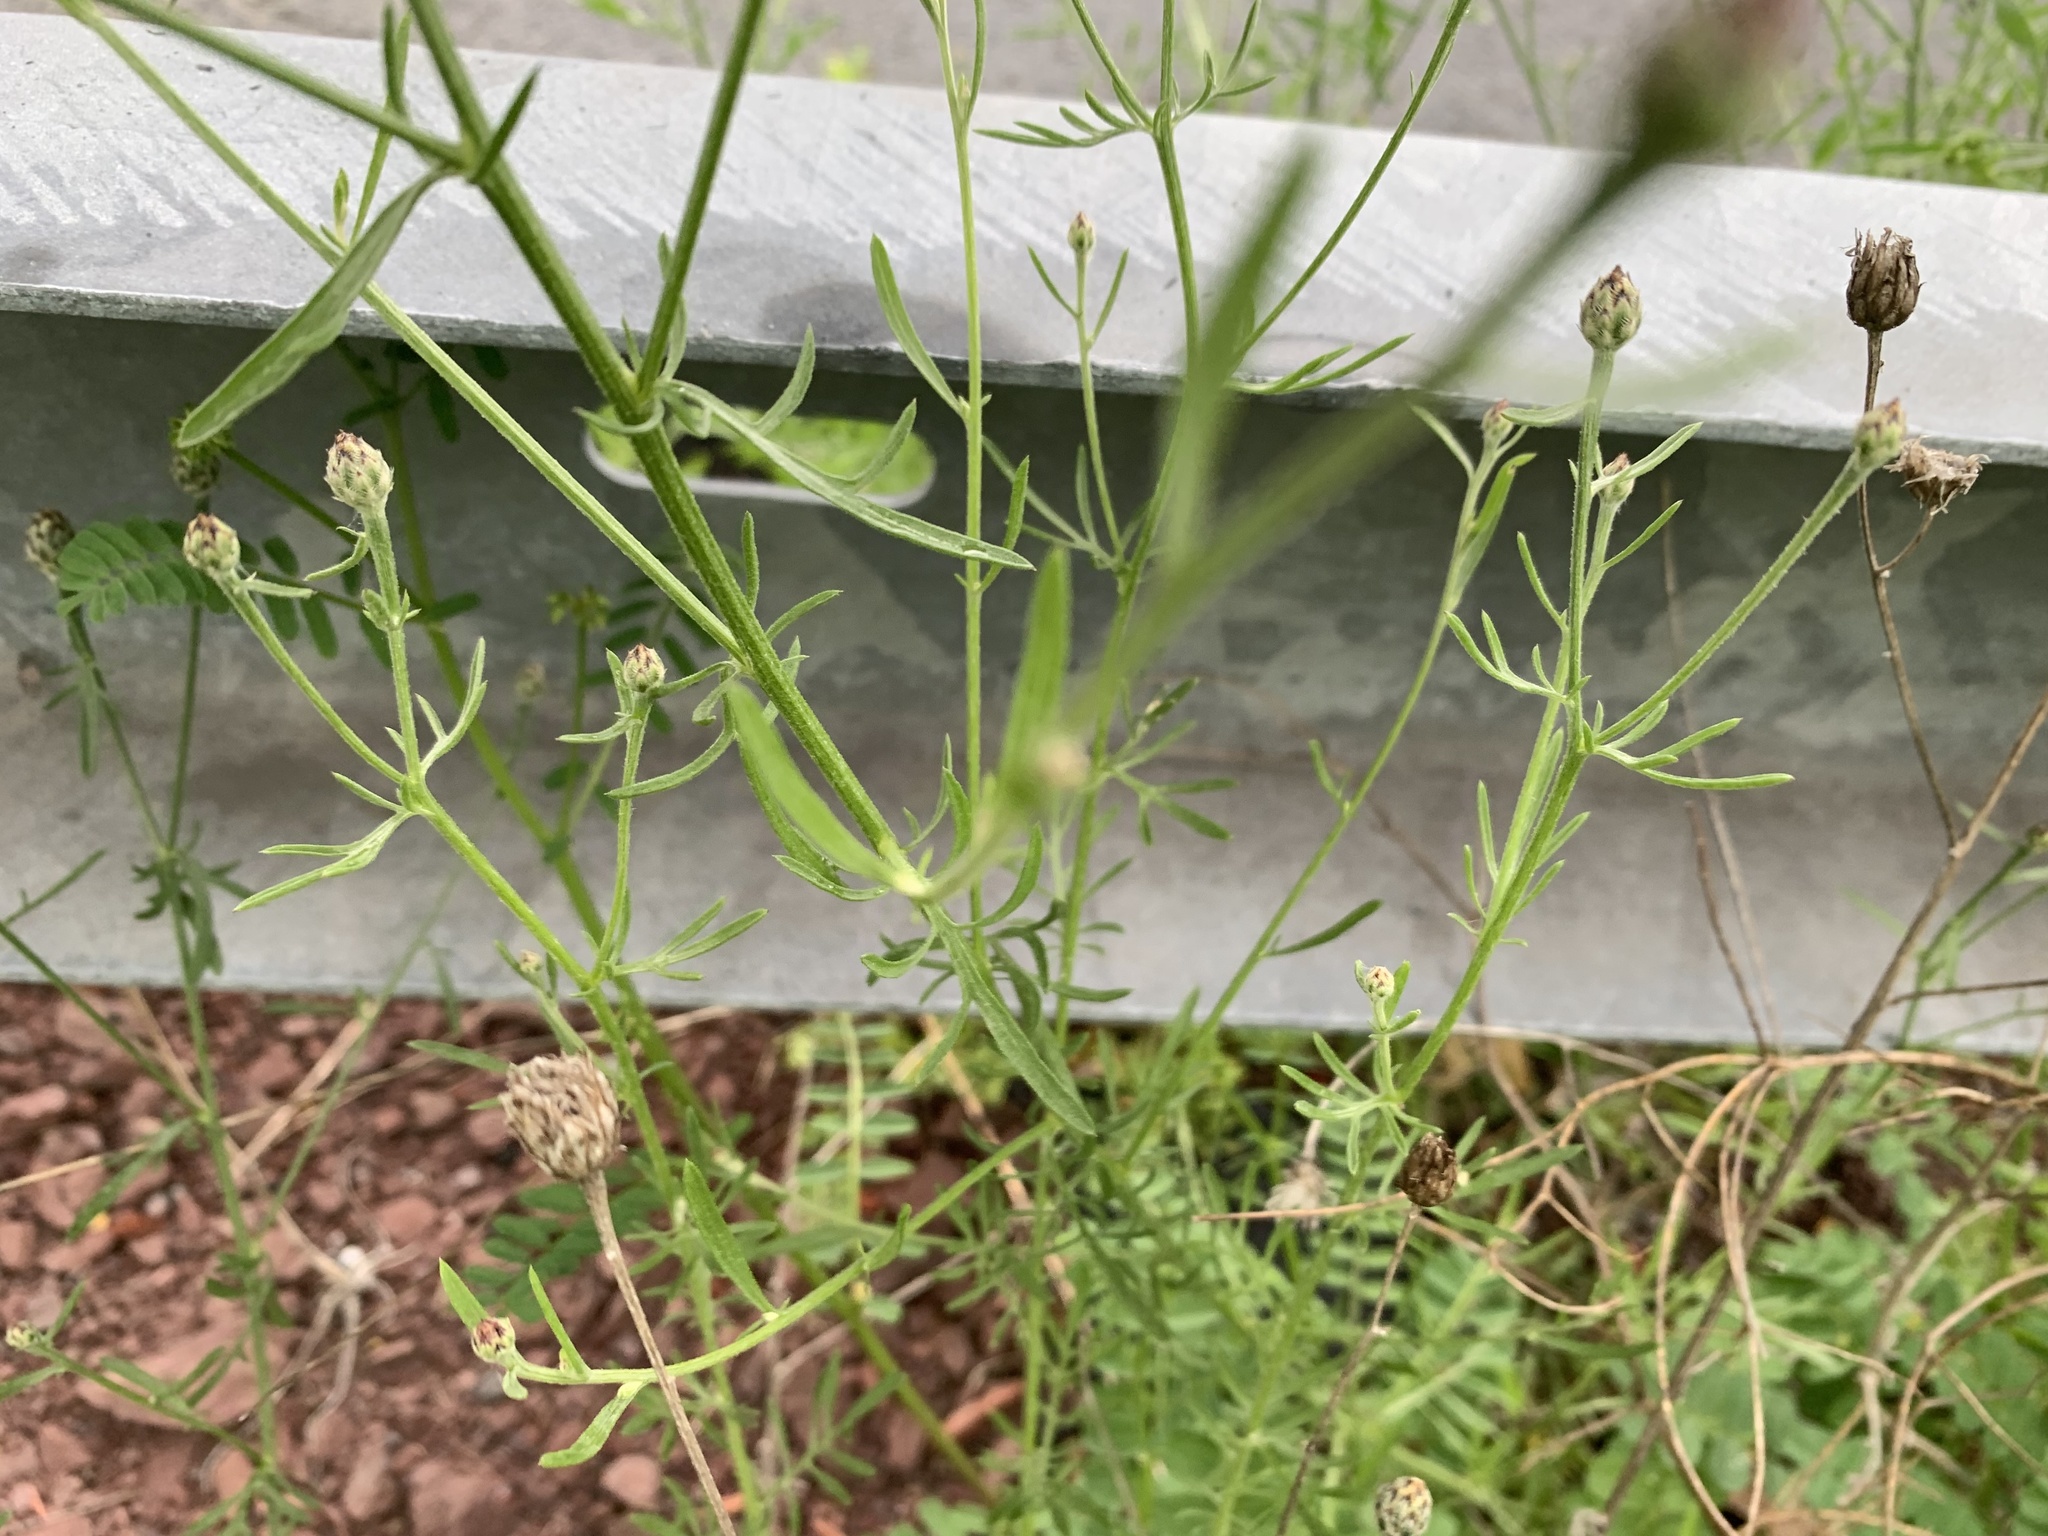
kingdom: Plantae
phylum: Tracheophyta
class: Magnoliopsida
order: Asterales
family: Asteraceae
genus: Centaurea
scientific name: Centaurea stoebe
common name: Spotted knapweed
